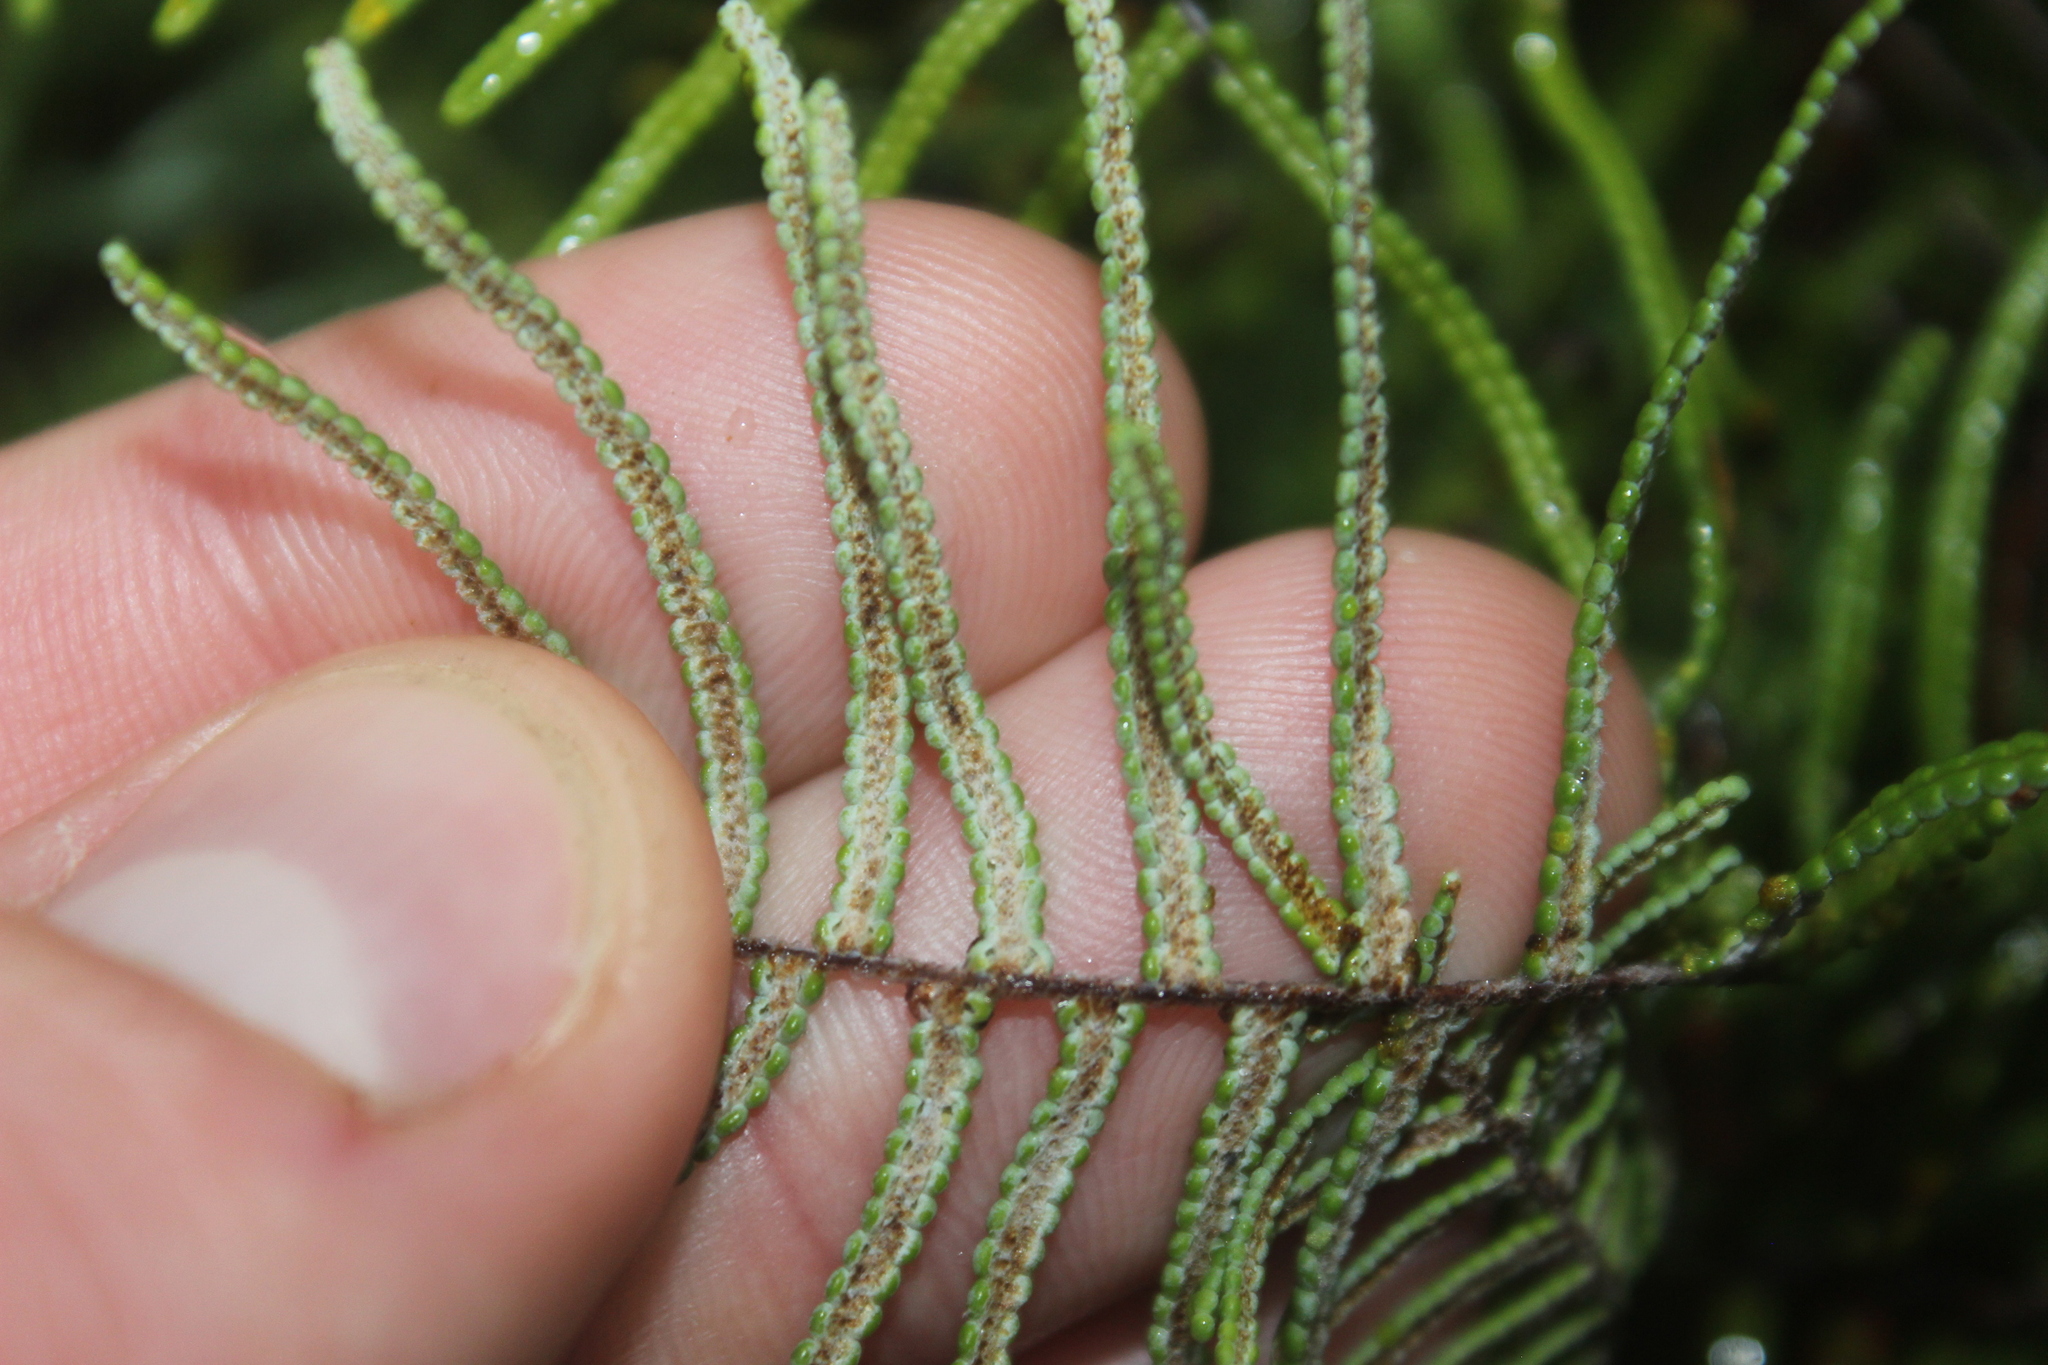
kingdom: Plantae
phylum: Tracheophyta
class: Polypodiopsida
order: Gleicheniales
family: Gleicheniaceae
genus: Gleichenia
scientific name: Gleichenia dicarpa
